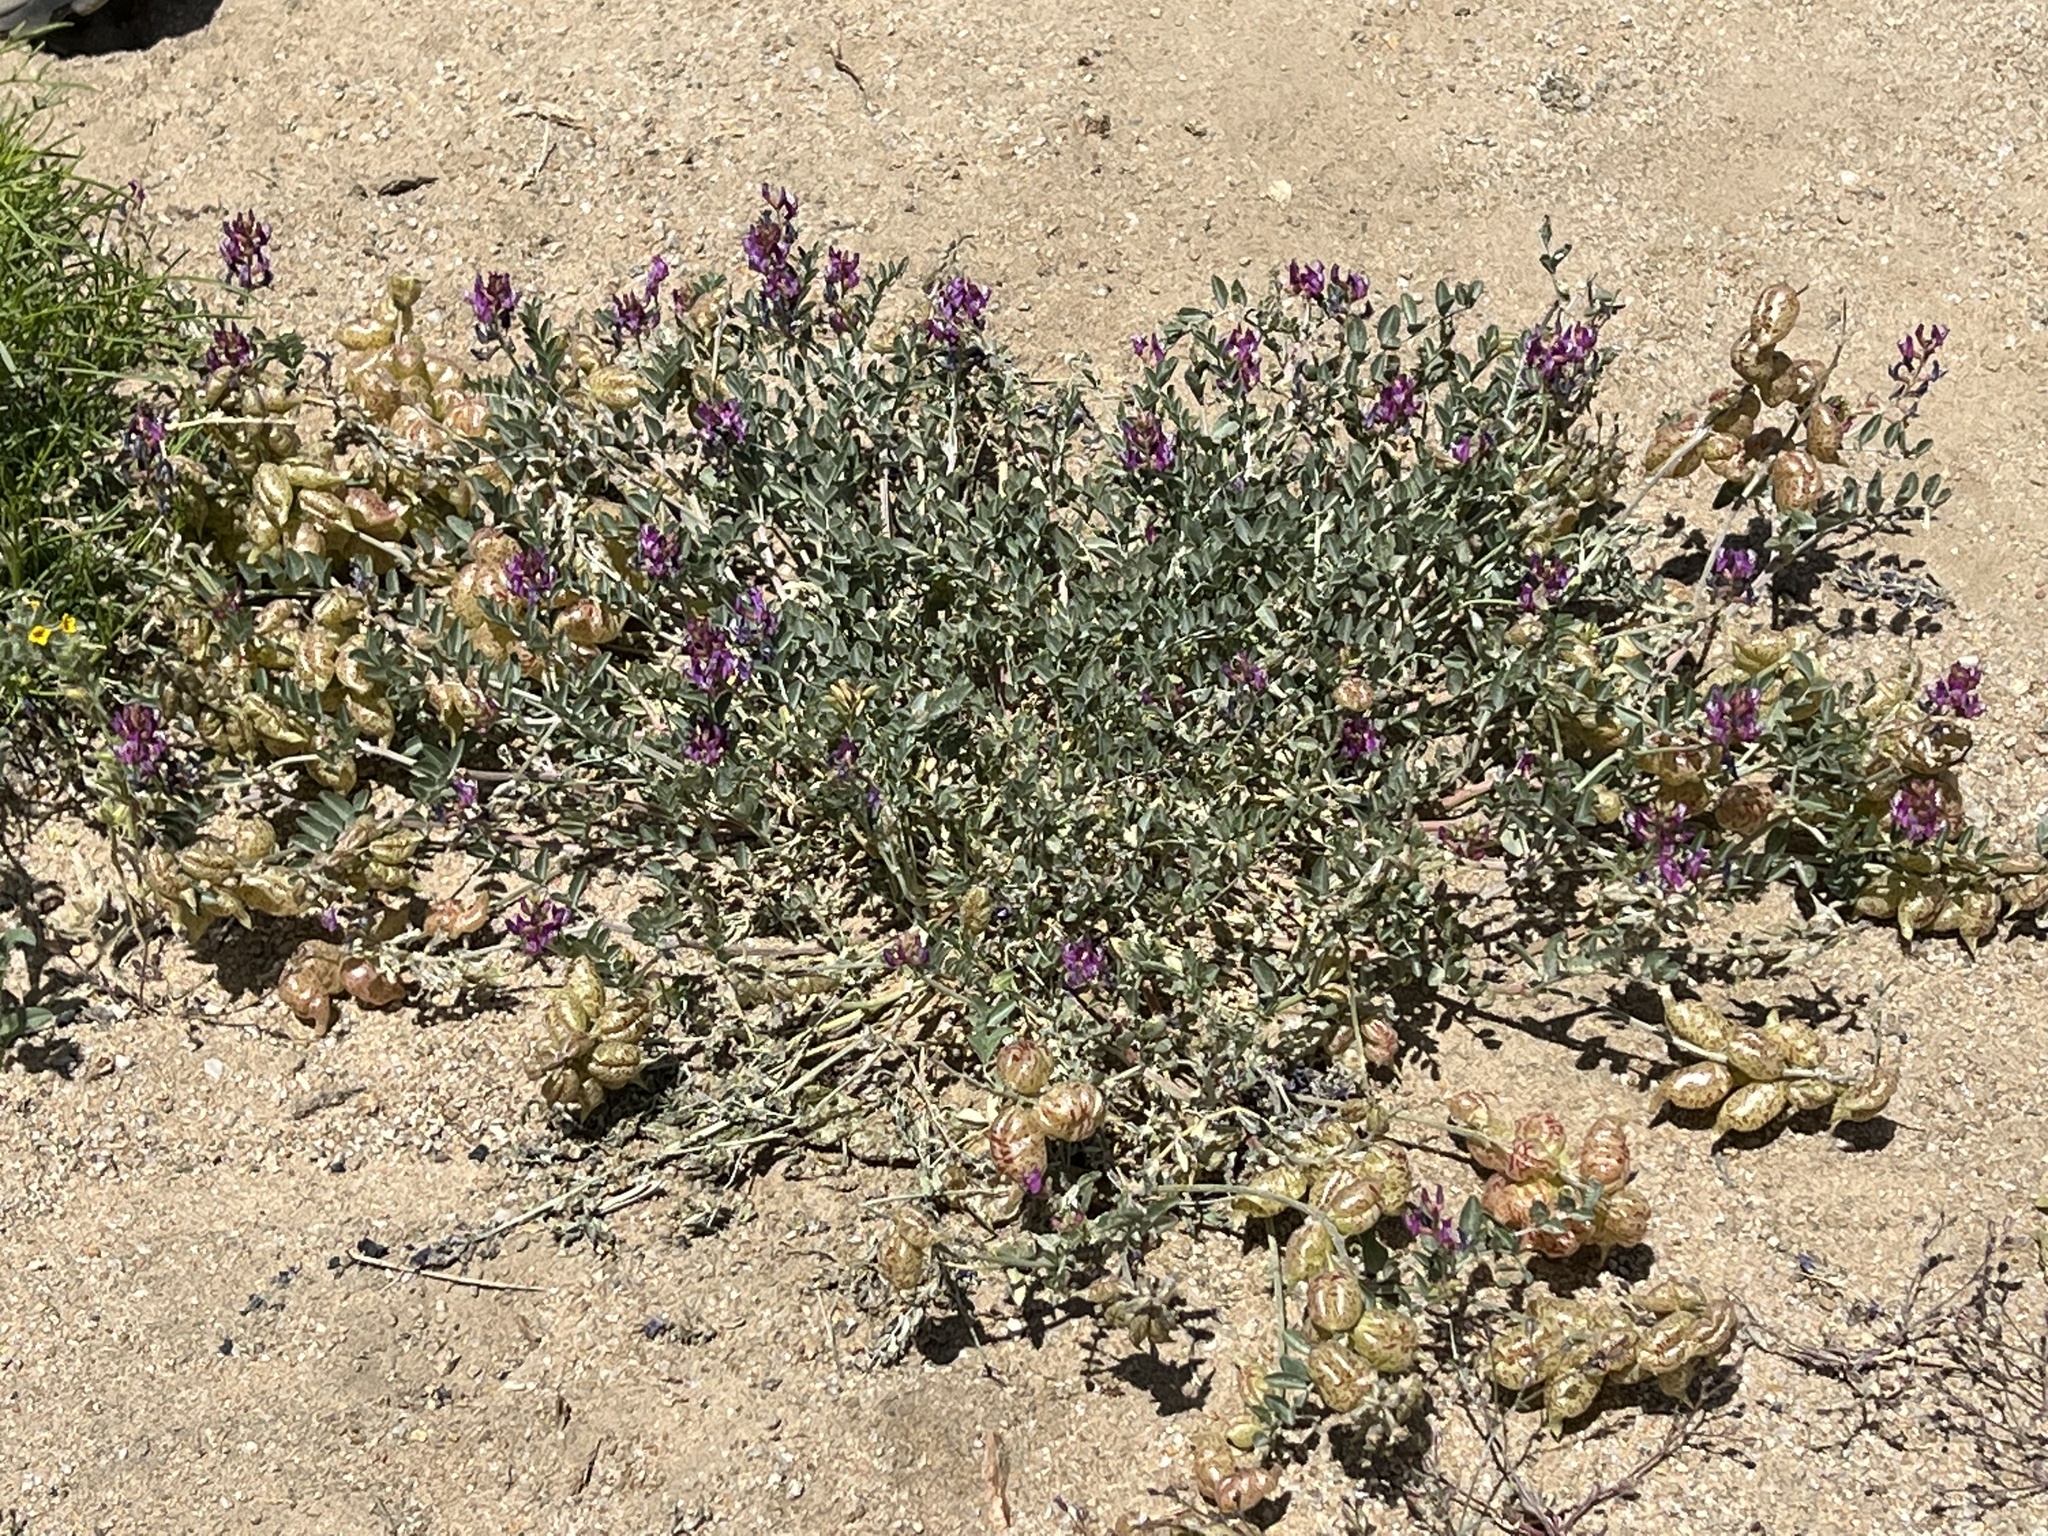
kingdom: Plantae
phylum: Tracheophyta
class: Magnoliopsida
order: Fabales
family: Fabaceae
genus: Astragalus
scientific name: Astragalus lentiginosus
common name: Freckled milkvetch
